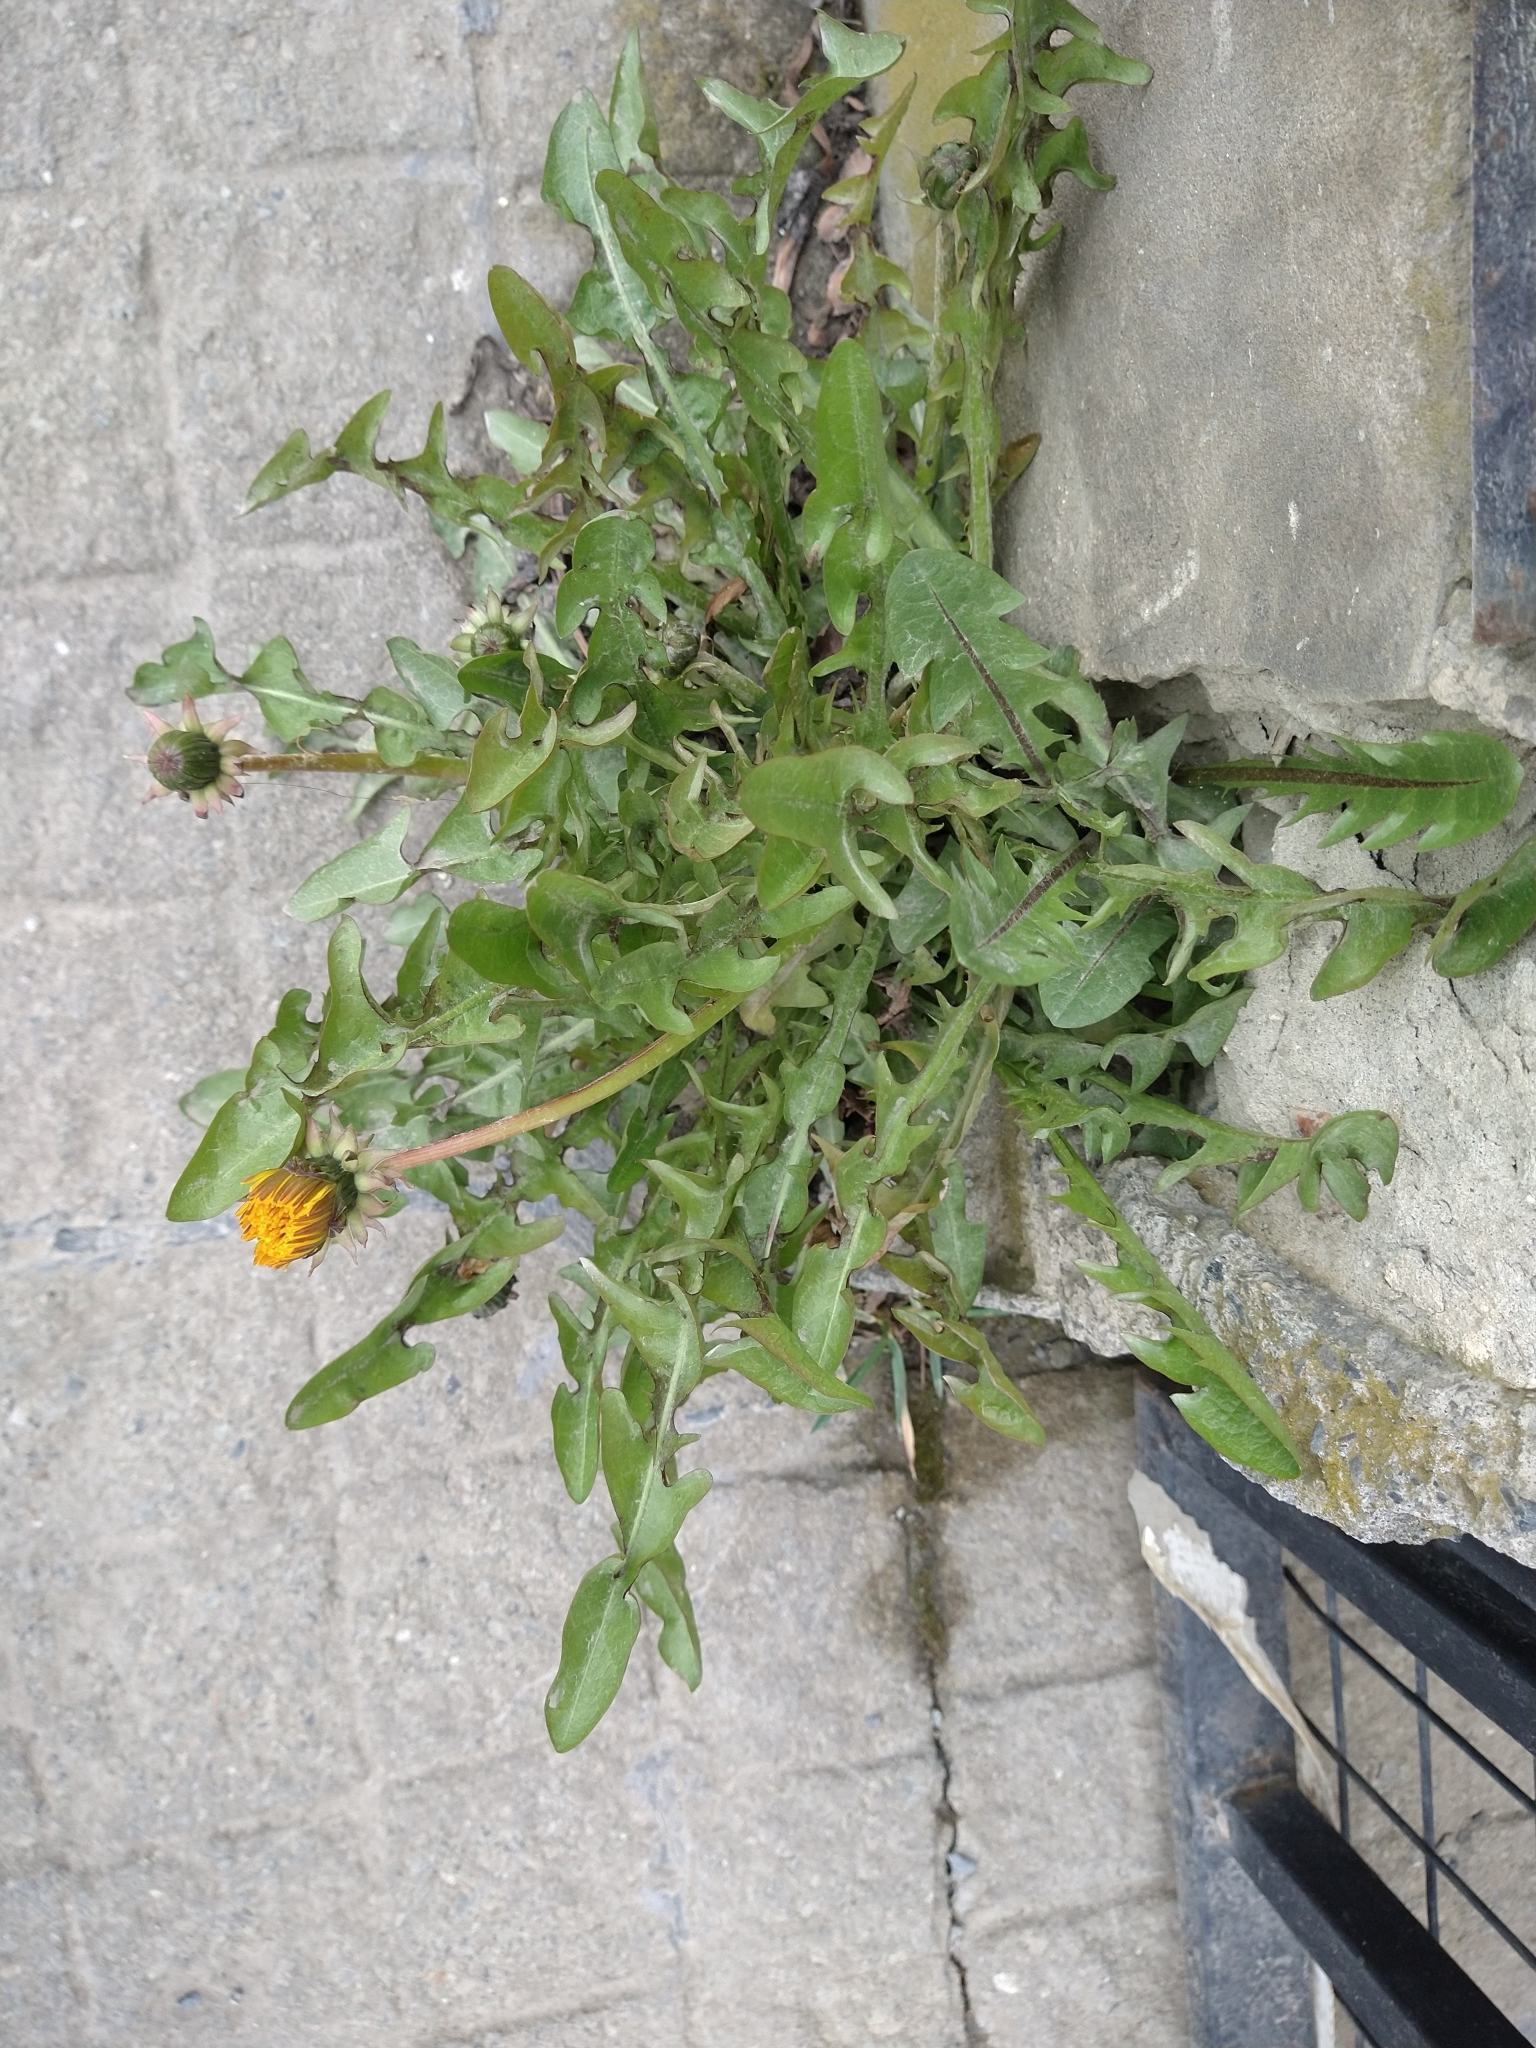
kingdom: Plantae
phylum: Tracheophyta
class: Magnoliopsida
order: Asterales
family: Asteraceae
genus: Taraxacum
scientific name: Taraxacum officinale
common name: Common dandelion
